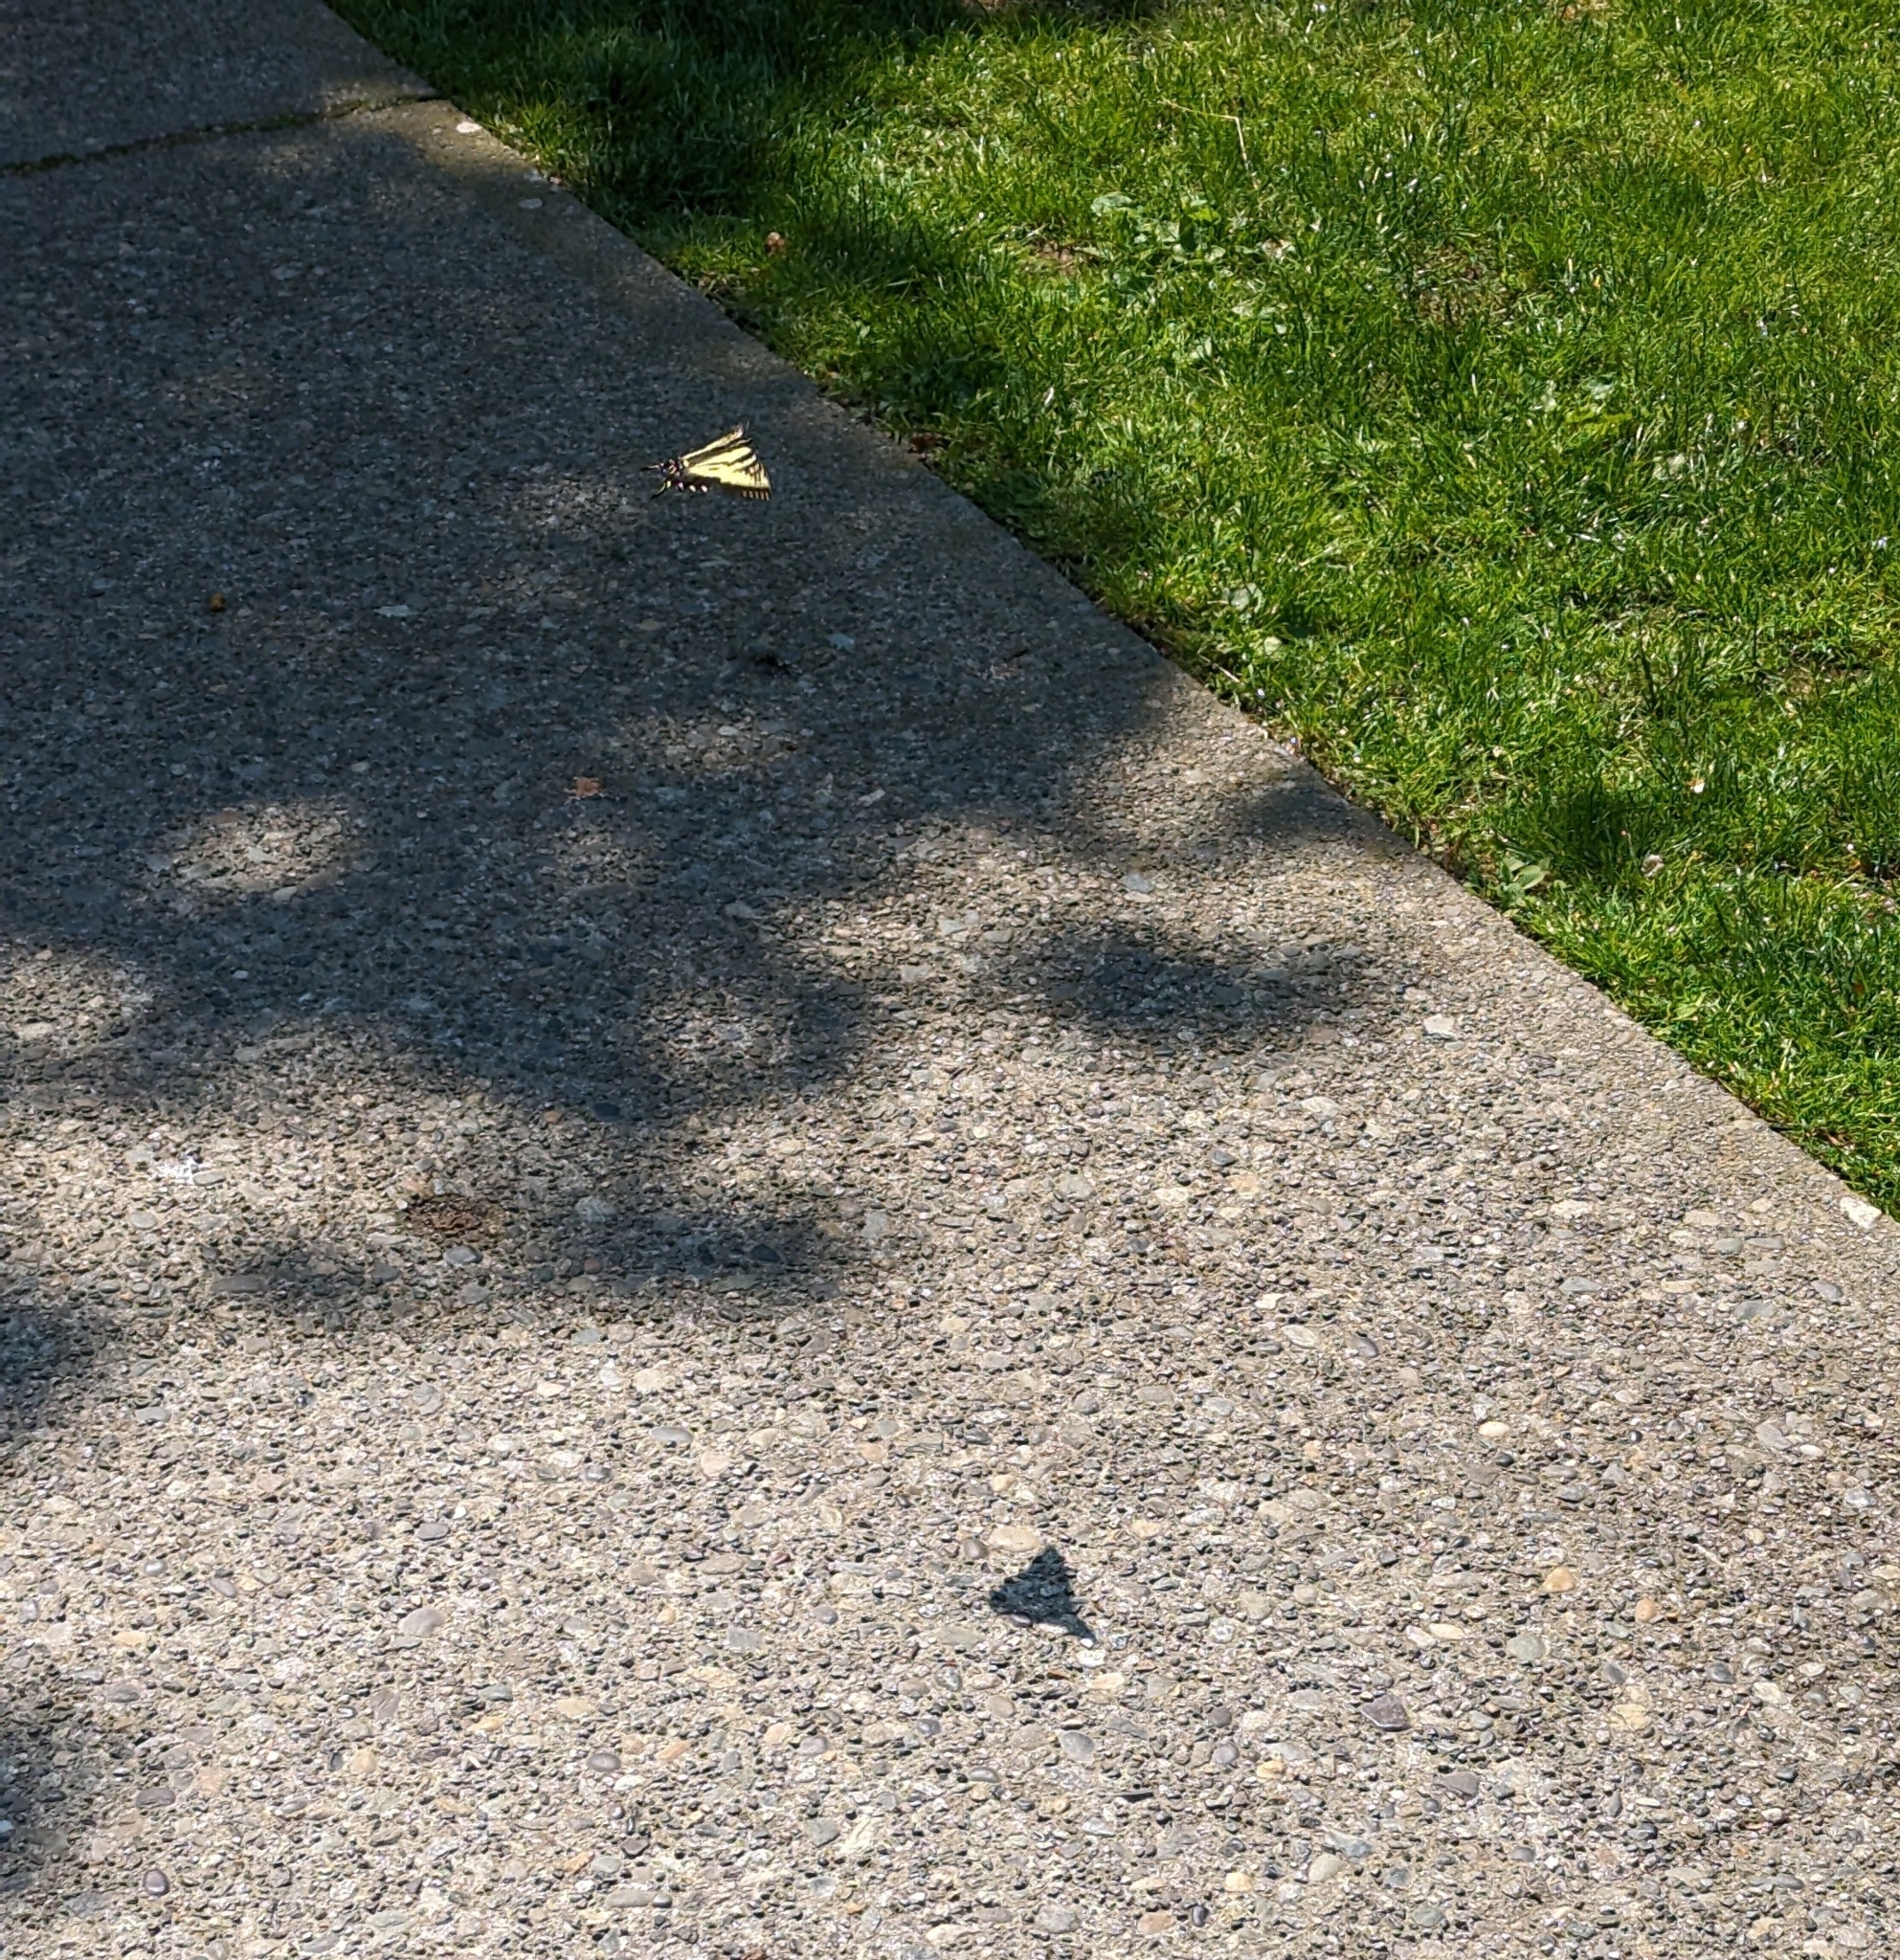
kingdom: Animalia
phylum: Arthropoda
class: Insecta
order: Lepidoptera
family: Papilionidae
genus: Papilio
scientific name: Papilio rutulus
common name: Western tiger swallowtail
